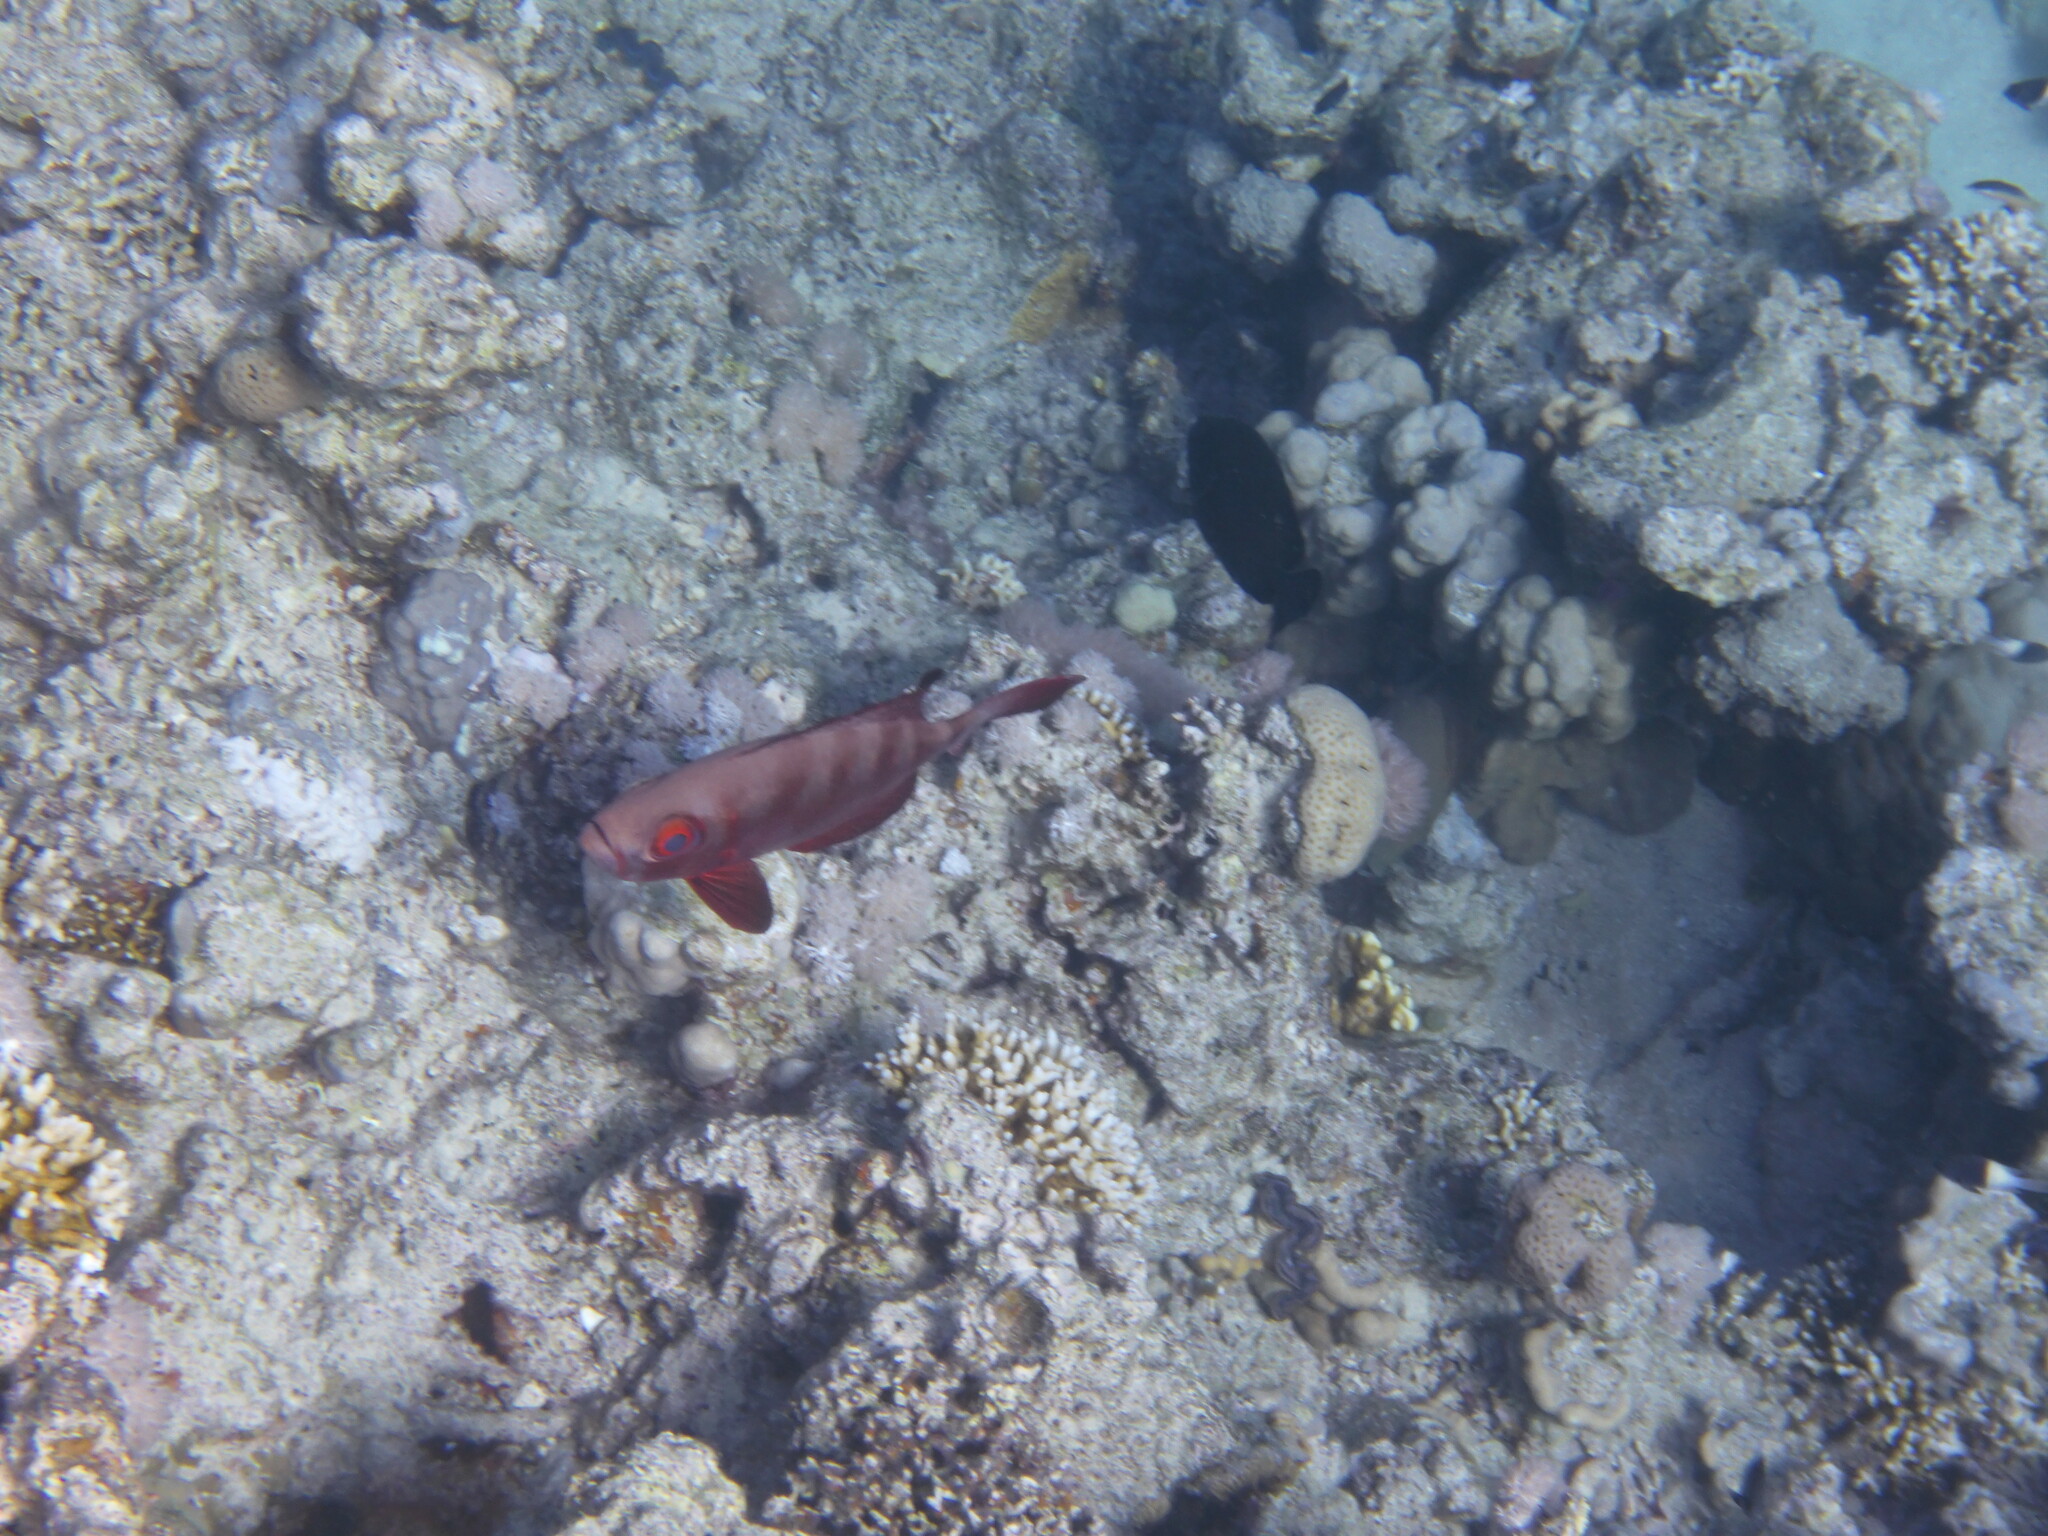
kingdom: Animalia
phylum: Chordata
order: Perciformes
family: Priacanthidae
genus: Priacanthus
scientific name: Priacanthus hamrur
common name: Moontail bullseye
